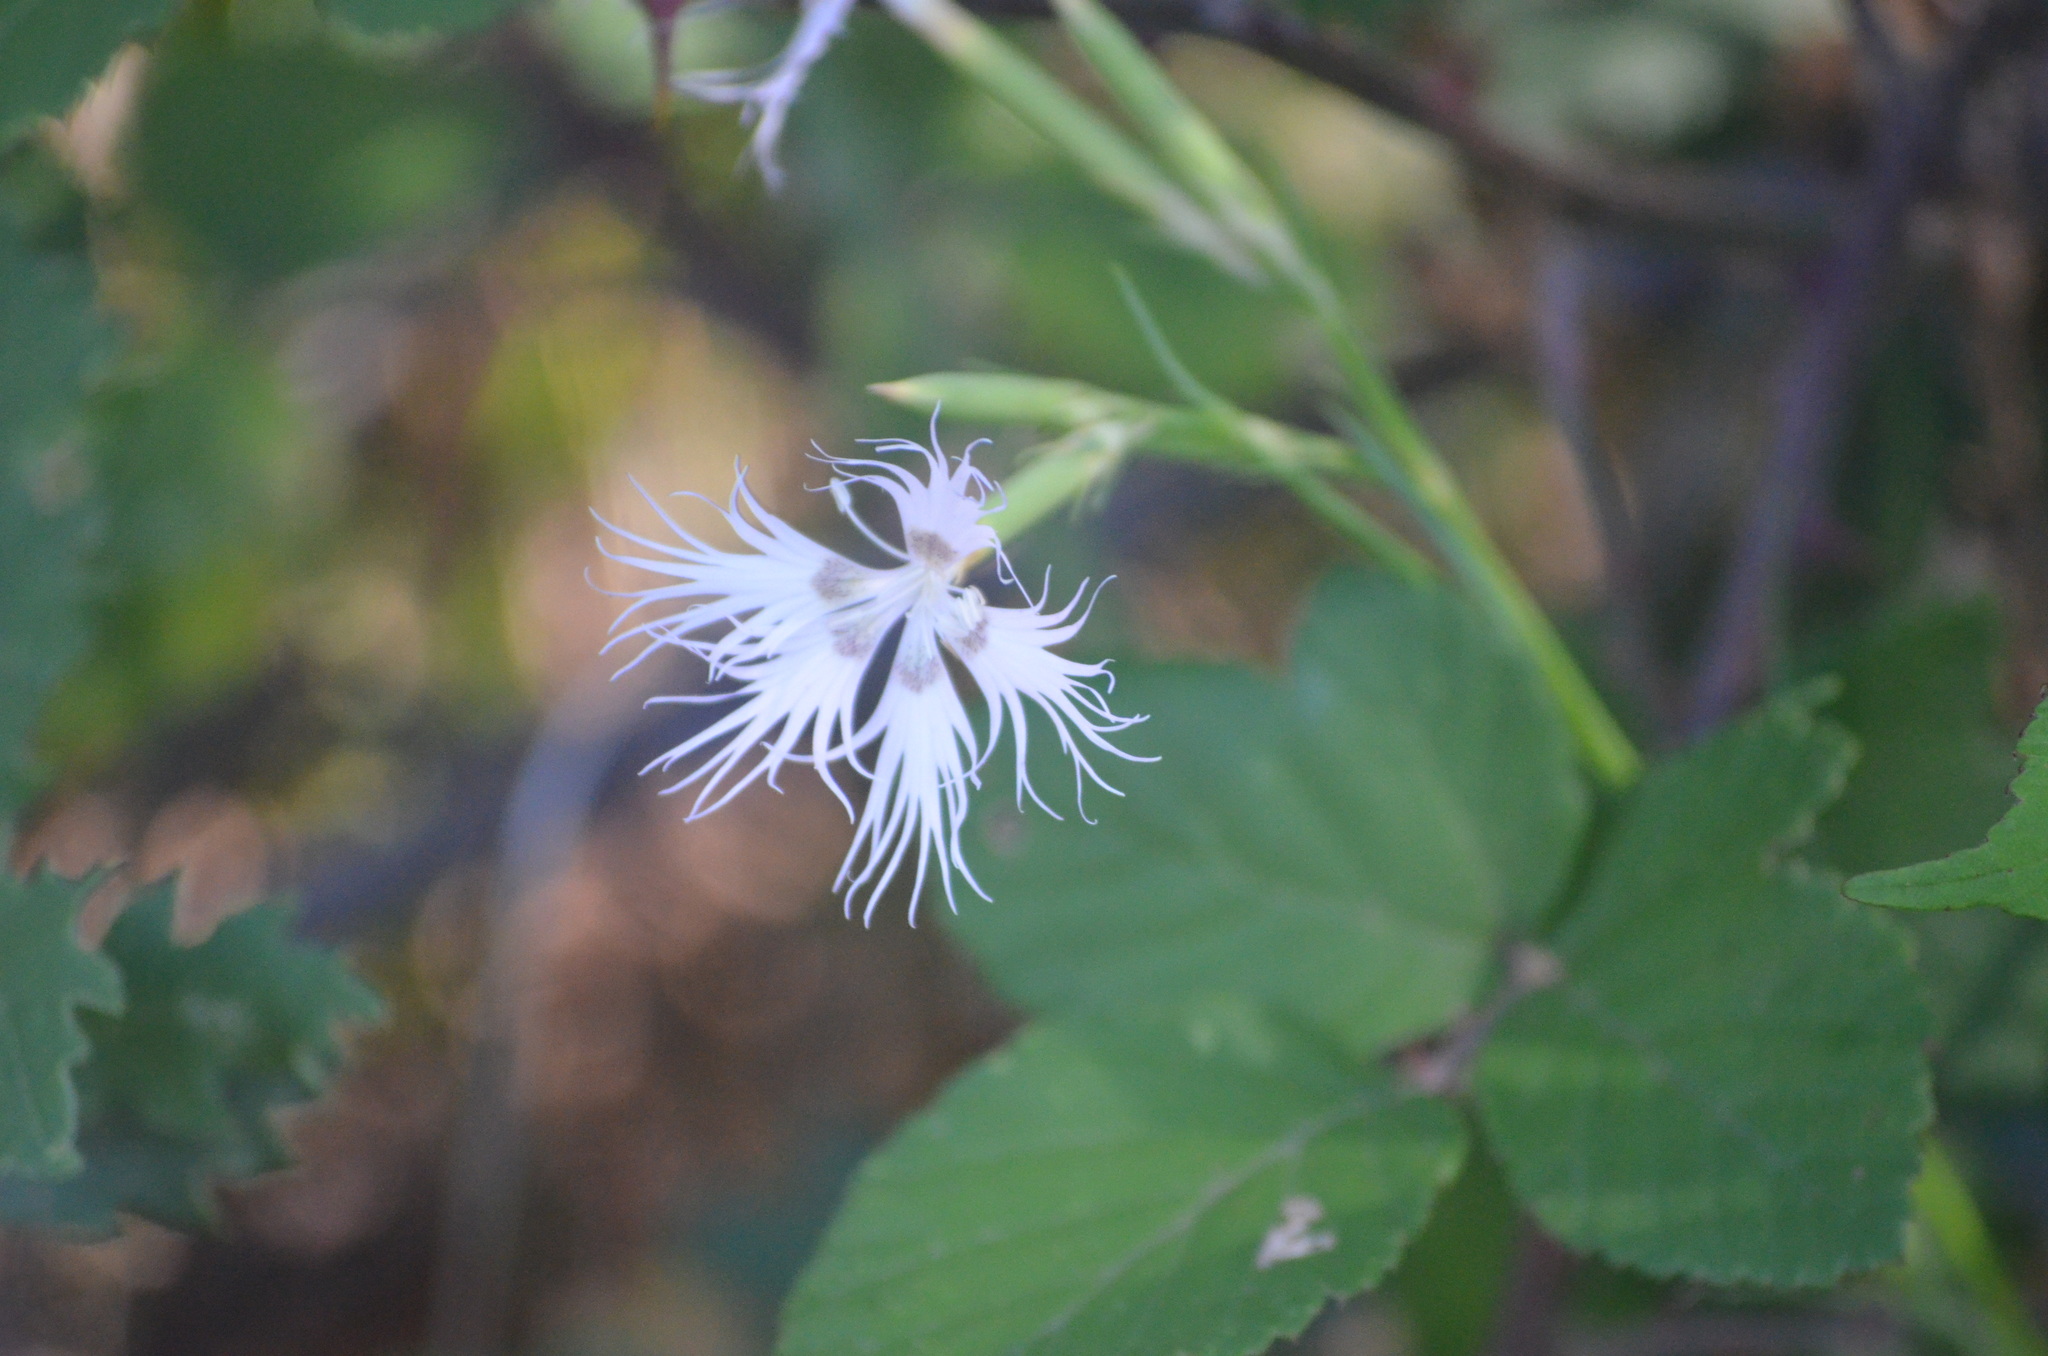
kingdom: Plantae
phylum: Tracheophyta
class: Magnoliopsida
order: Caryophyllales
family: Caryophyllaceae
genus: Dianthus
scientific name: Dianthus hyssopifolius
